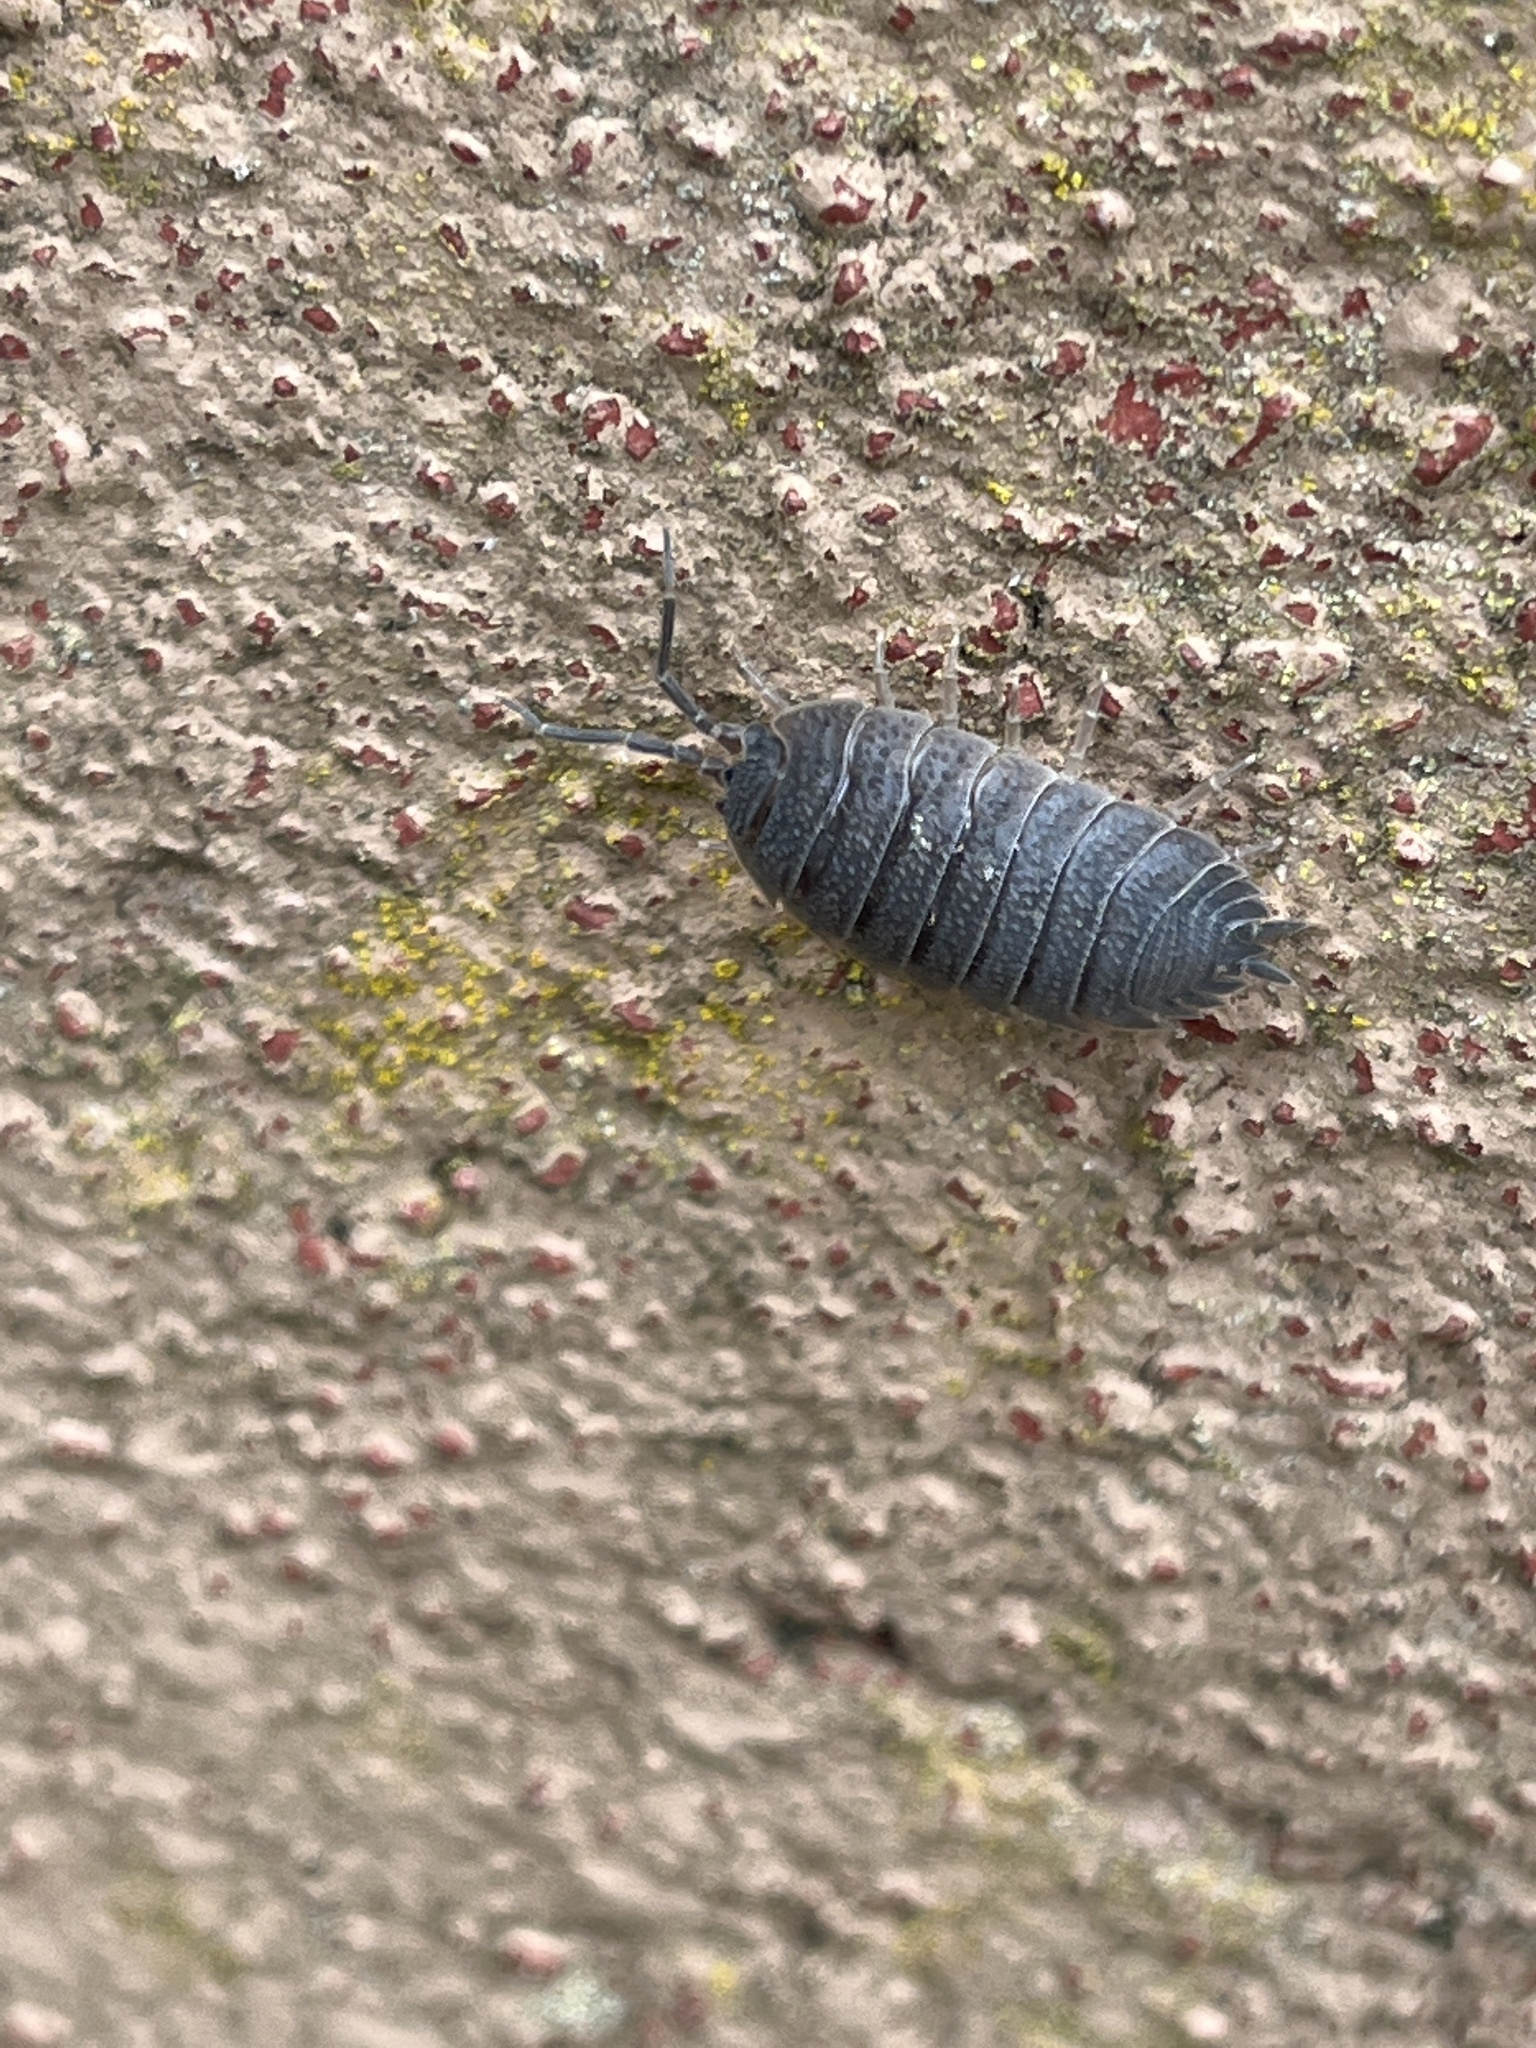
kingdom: Animalia
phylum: Arthropoda
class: Malacostraca
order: Isopoda
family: Porcellionidae
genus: Porcellio
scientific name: Porcellio scaber
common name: Common rough woodlouse
